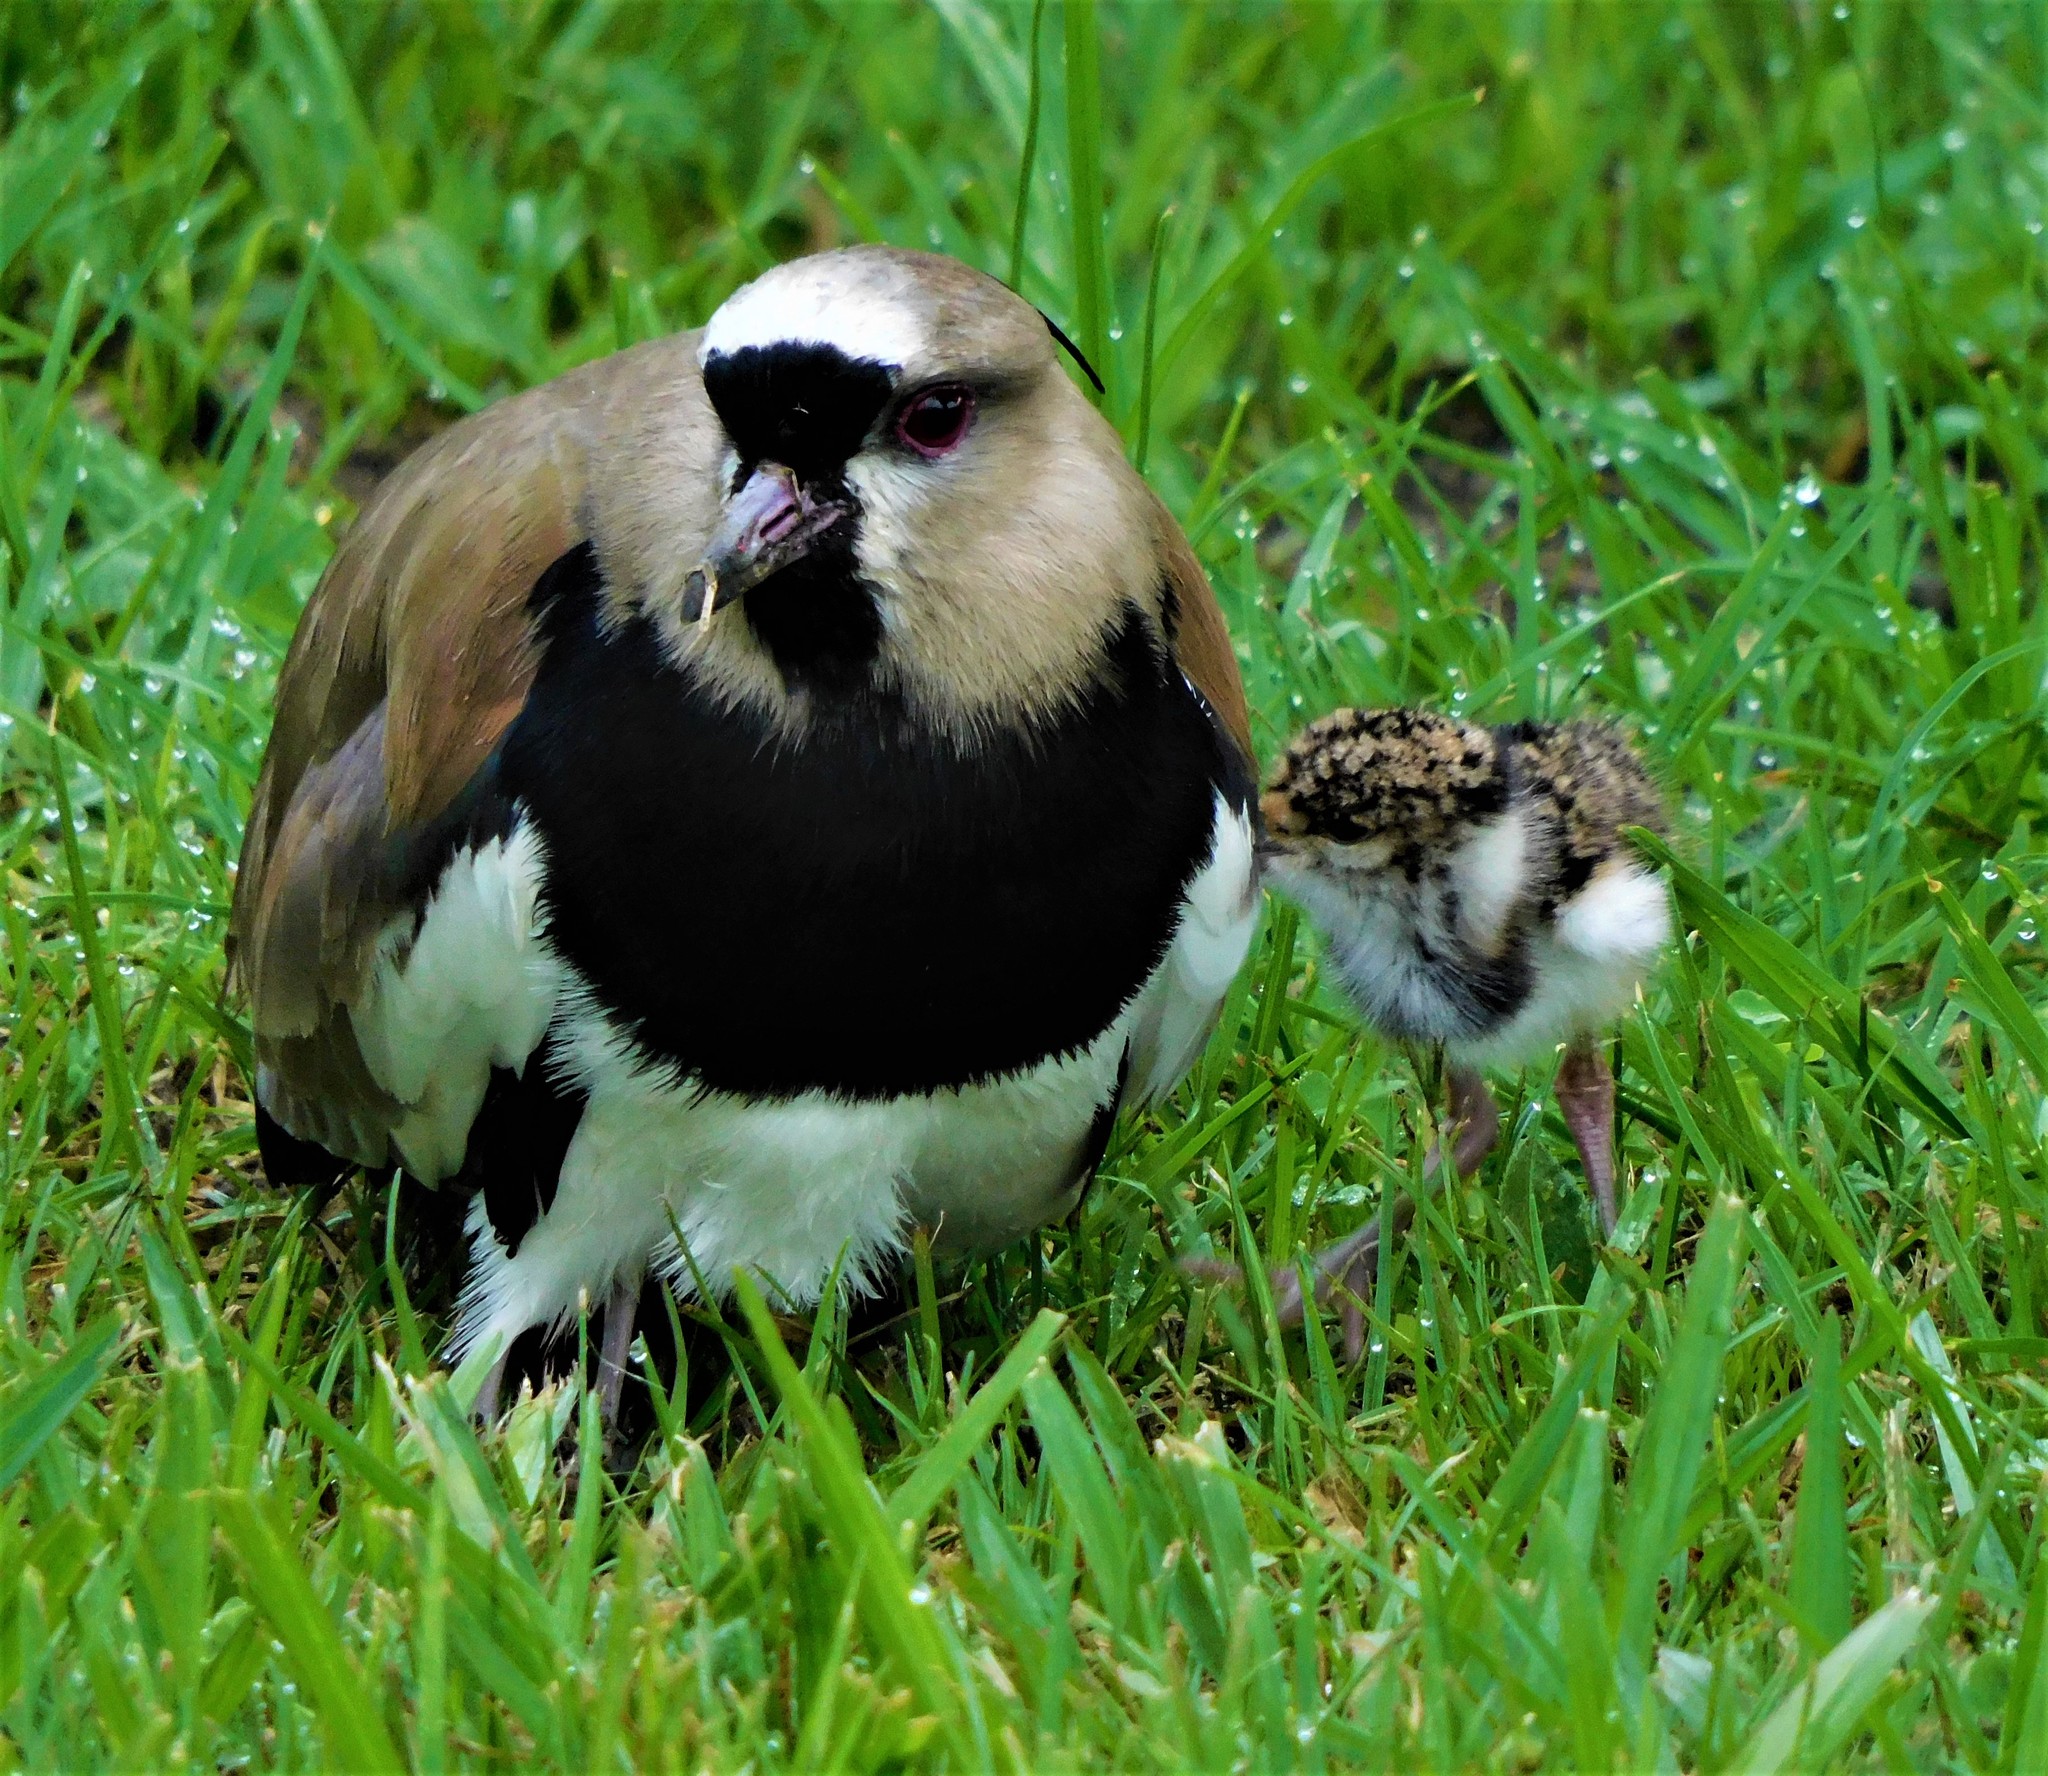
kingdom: Animalia
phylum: Chordata
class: Aves
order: Charadriiformes
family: Charadriidae
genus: Vanellus
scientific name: Vanellus chilensis
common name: Southern lapwing
